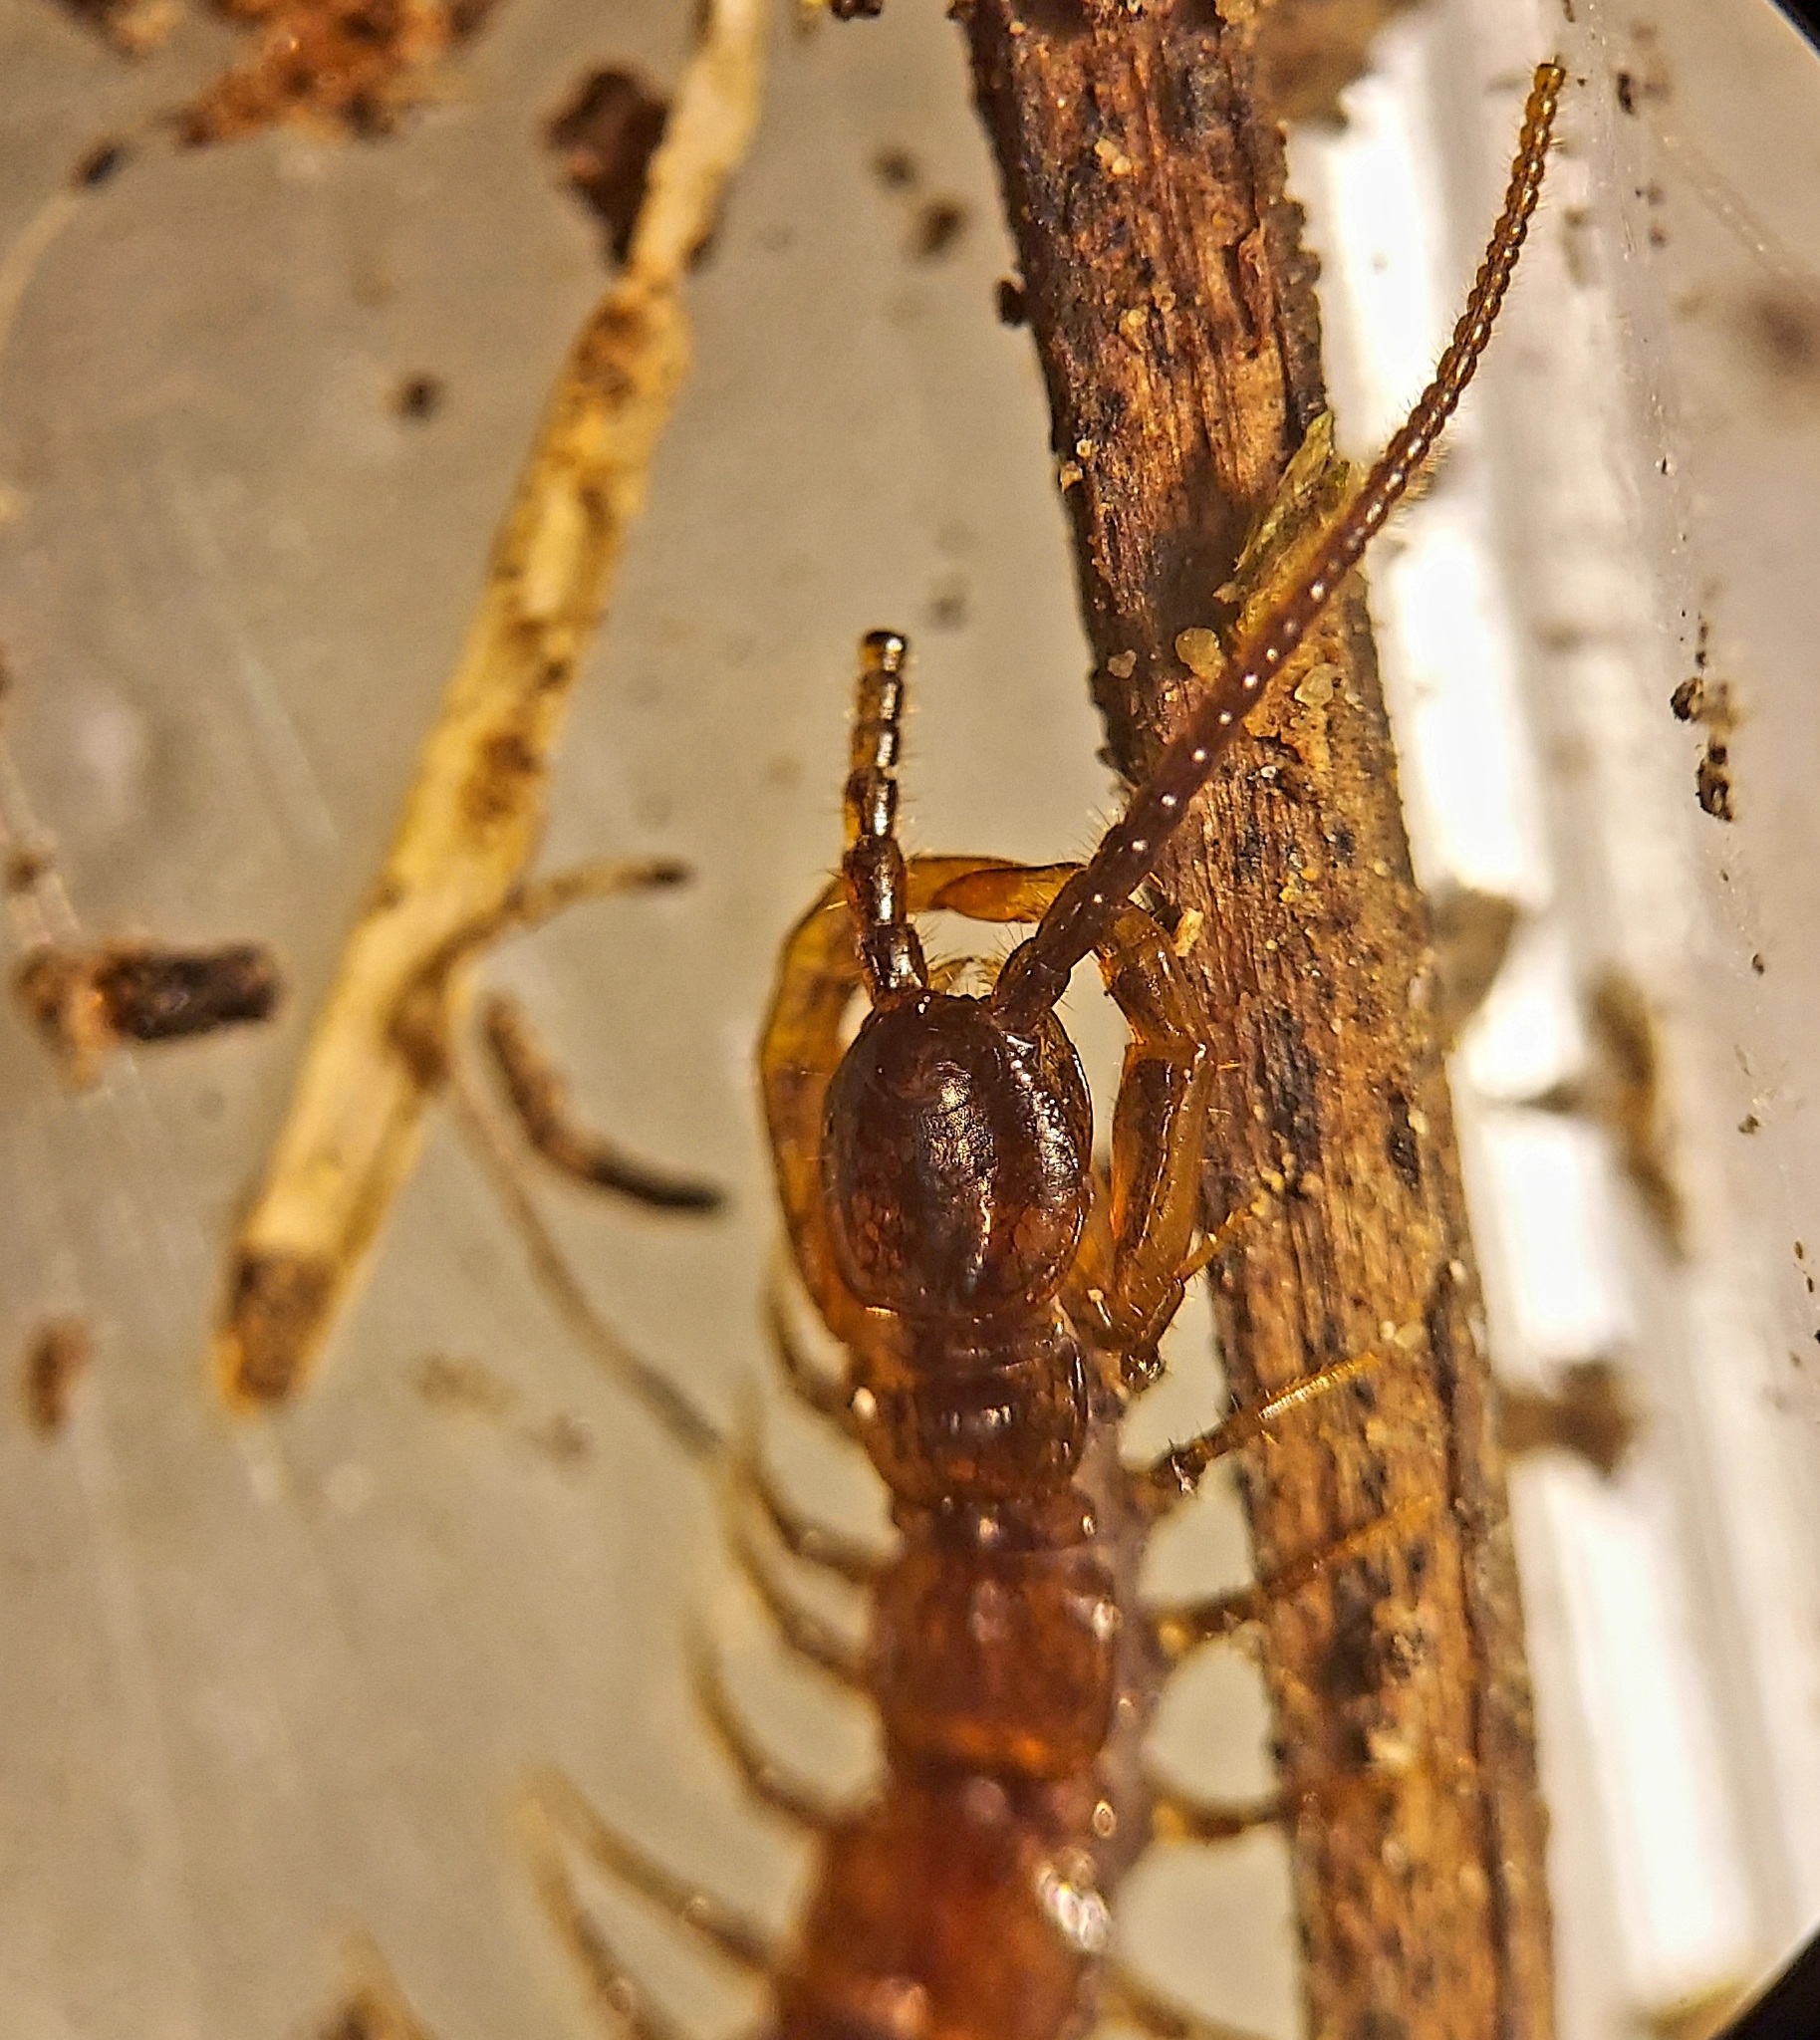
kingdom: Animalia
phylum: Arthropoda
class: Chilopoda
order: Lithobiomorpha
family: Lithobiidae
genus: Paitobius
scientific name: Paitobius zinus
